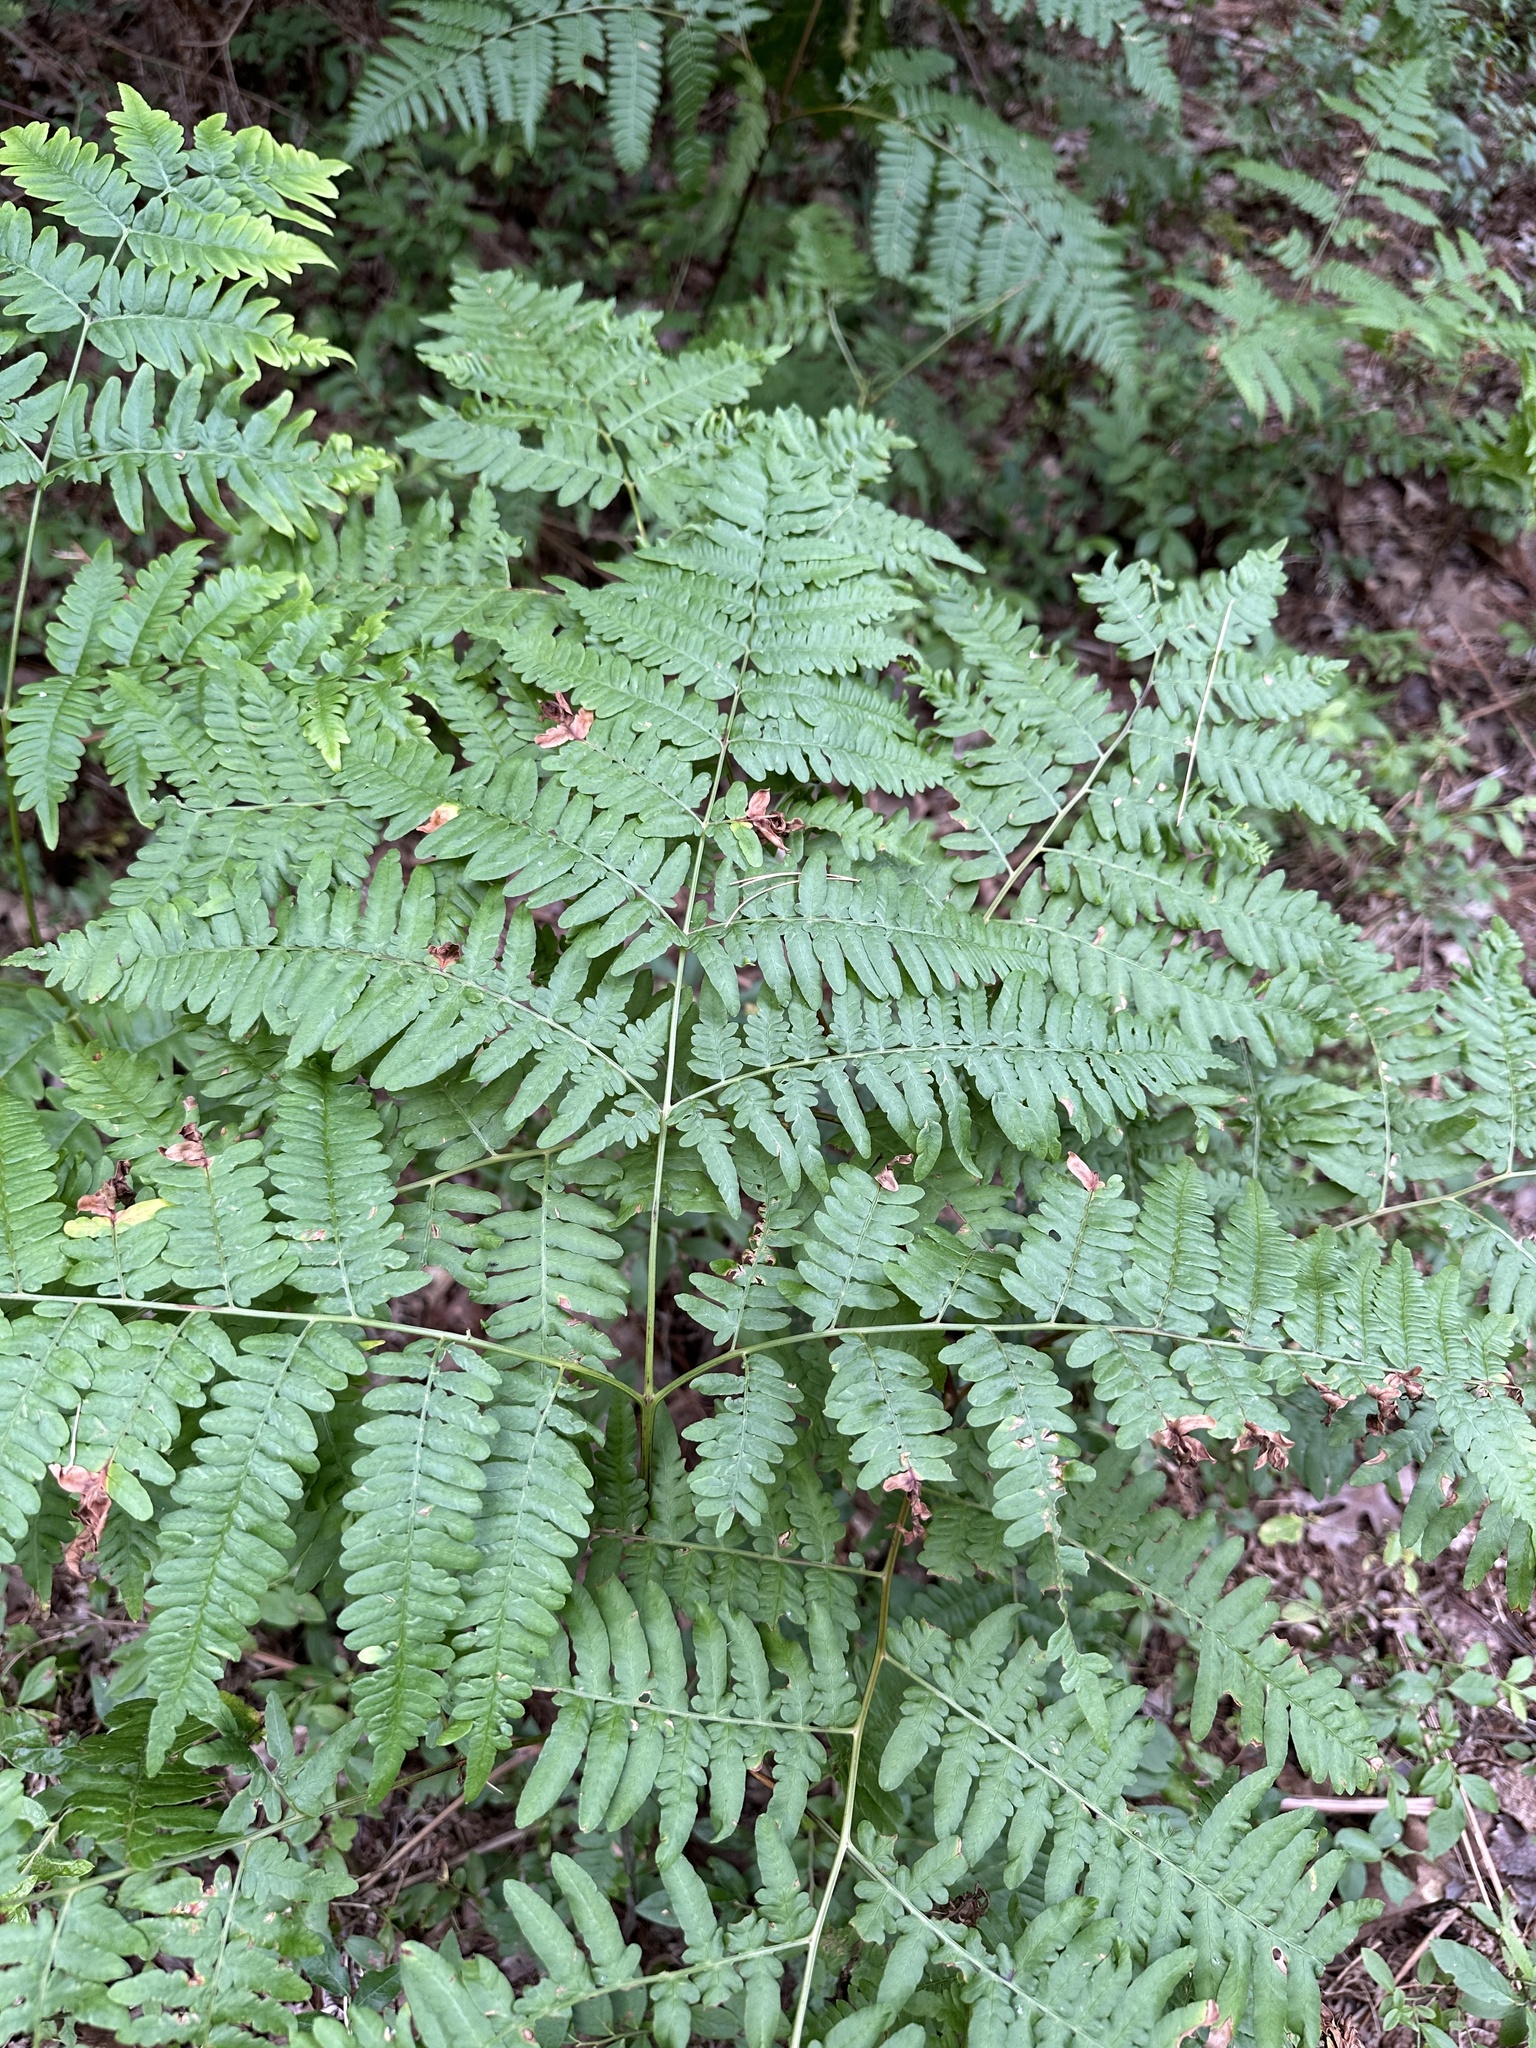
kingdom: Plantae
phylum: Tracheophyta
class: Polypodiopsida
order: Polypodiales
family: Dennstaedtiaceae
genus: Pteridium
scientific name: Pteridium aquilinum
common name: Bracken
